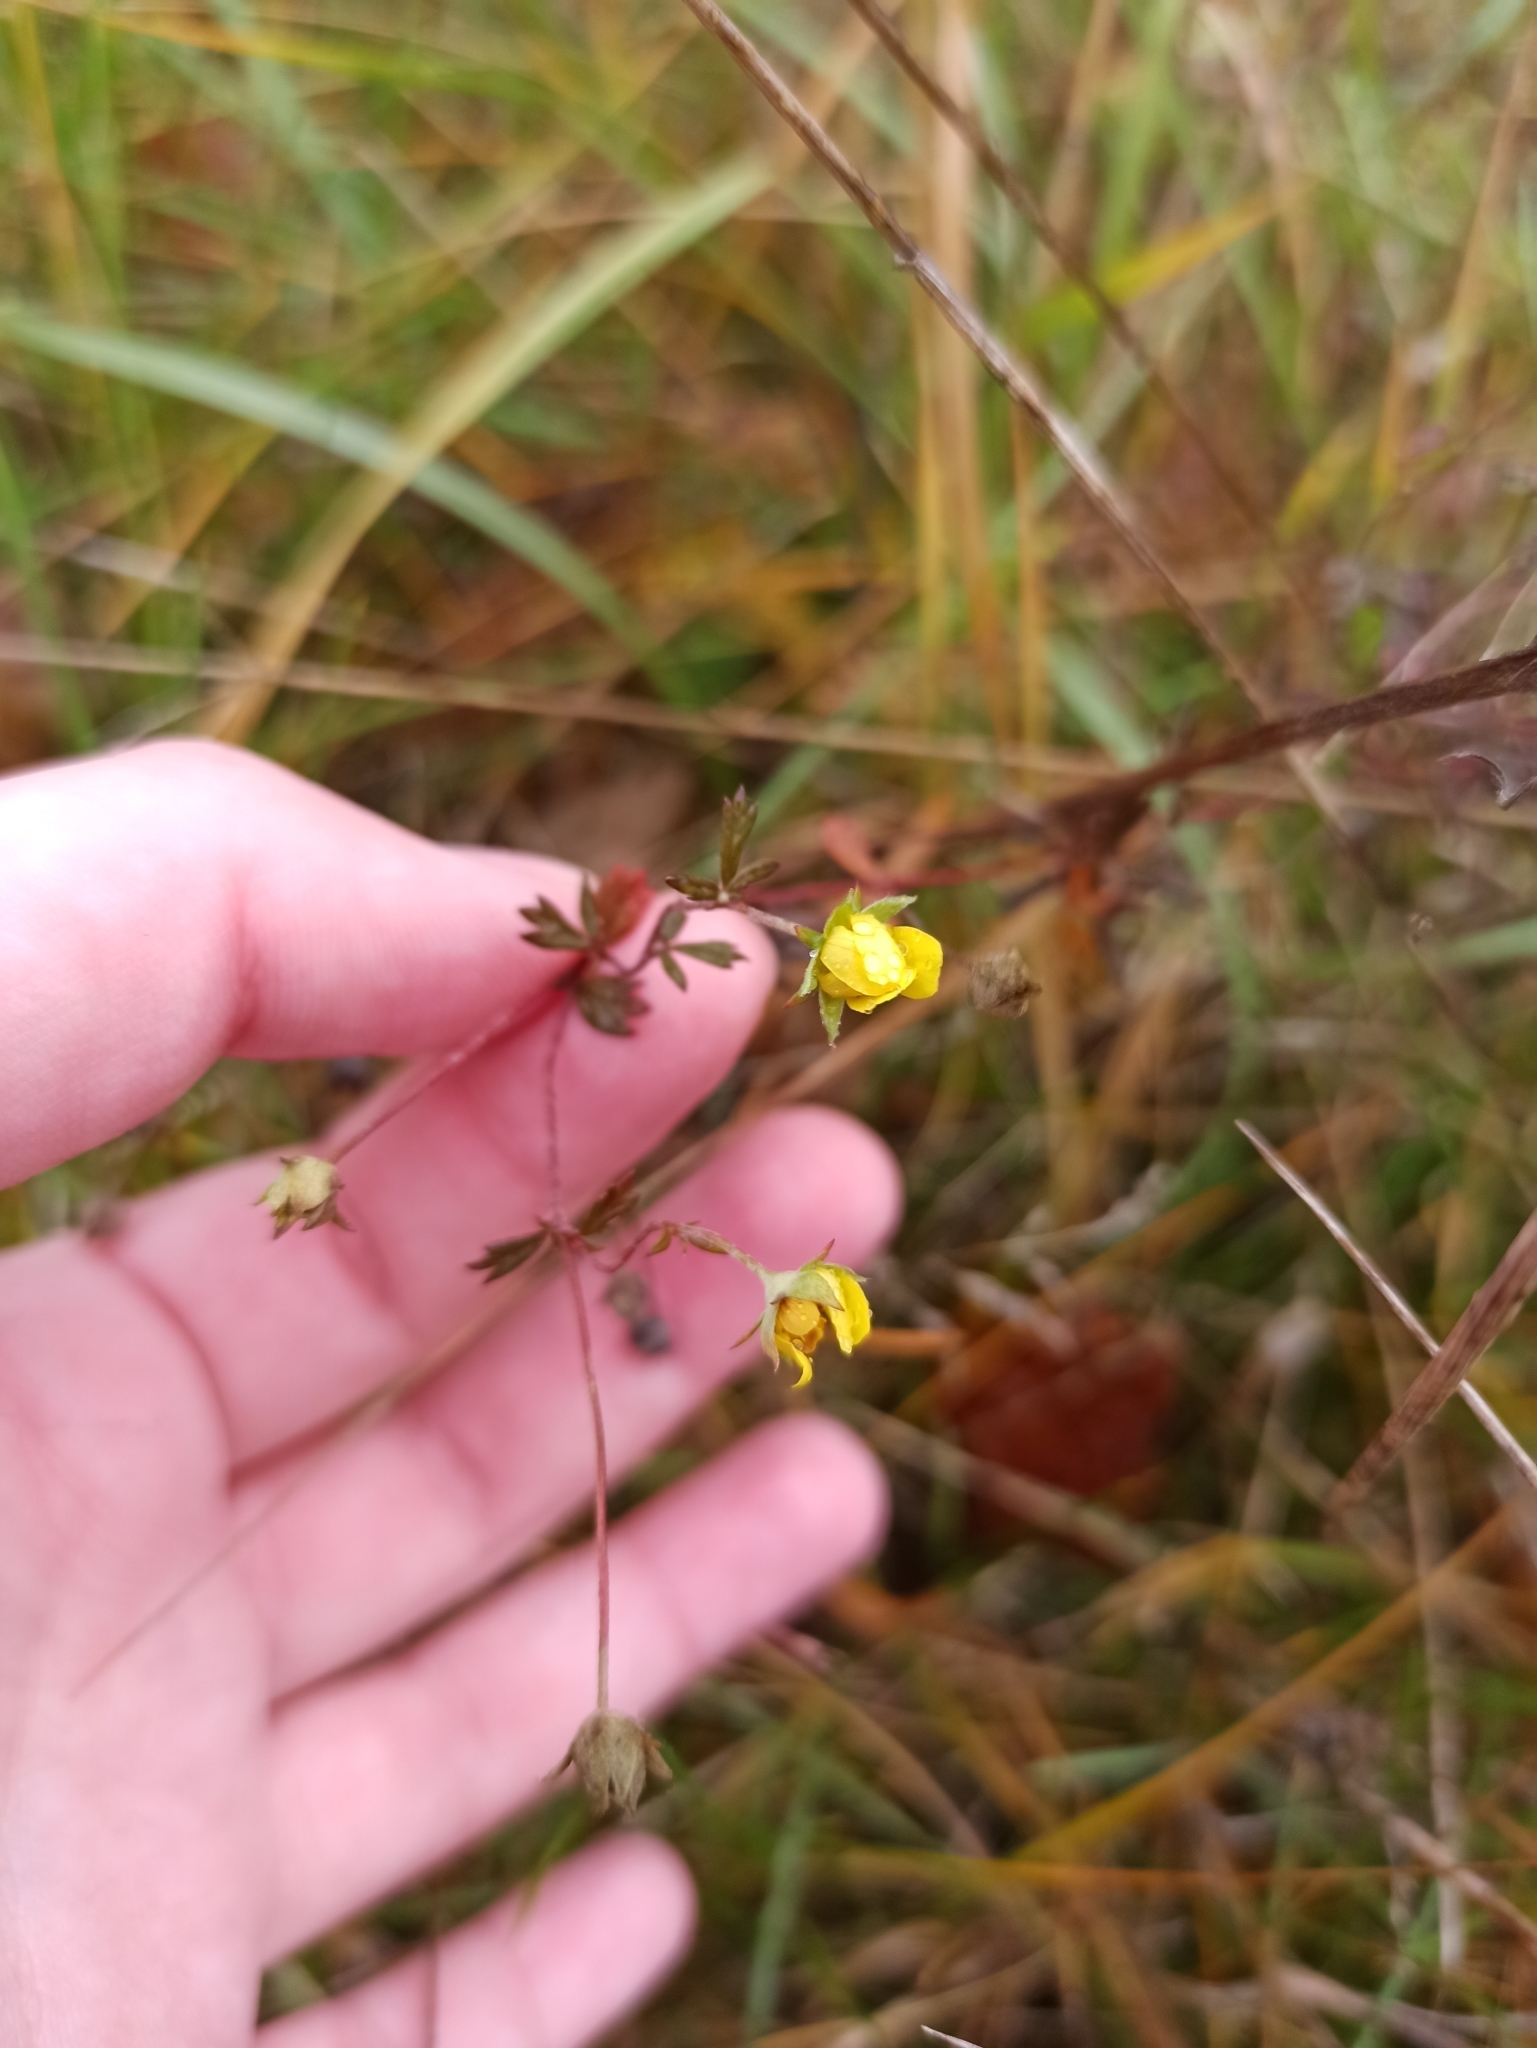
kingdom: Plantae
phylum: Tracheophyta
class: Magnoliopsida
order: Rosales
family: Rosaceae
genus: Potentilla
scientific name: Potentilla argentea
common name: Hoary cinquefoil
